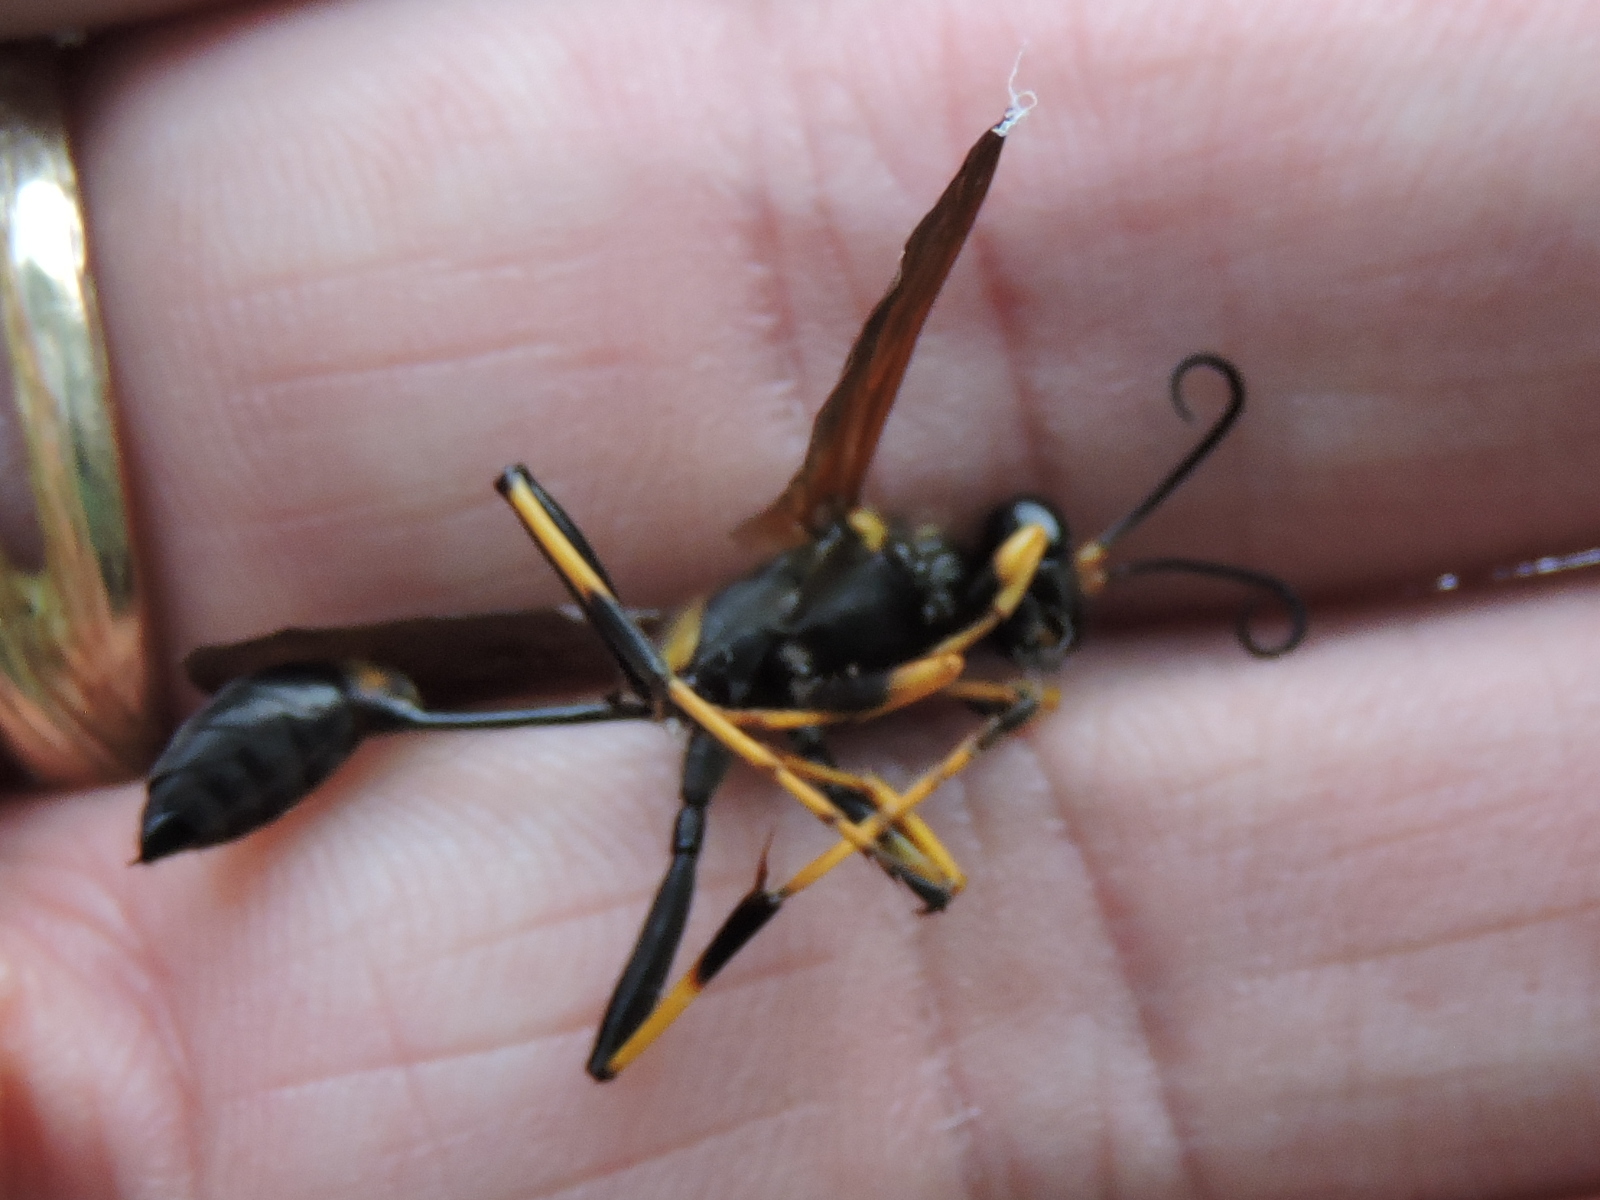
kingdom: Animalia
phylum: Arthropoda
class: Insecta
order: Hymenoptera
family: Sphecidae
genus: Sceliphron
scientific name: Sceliphron caementarium
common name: Mud dauber
